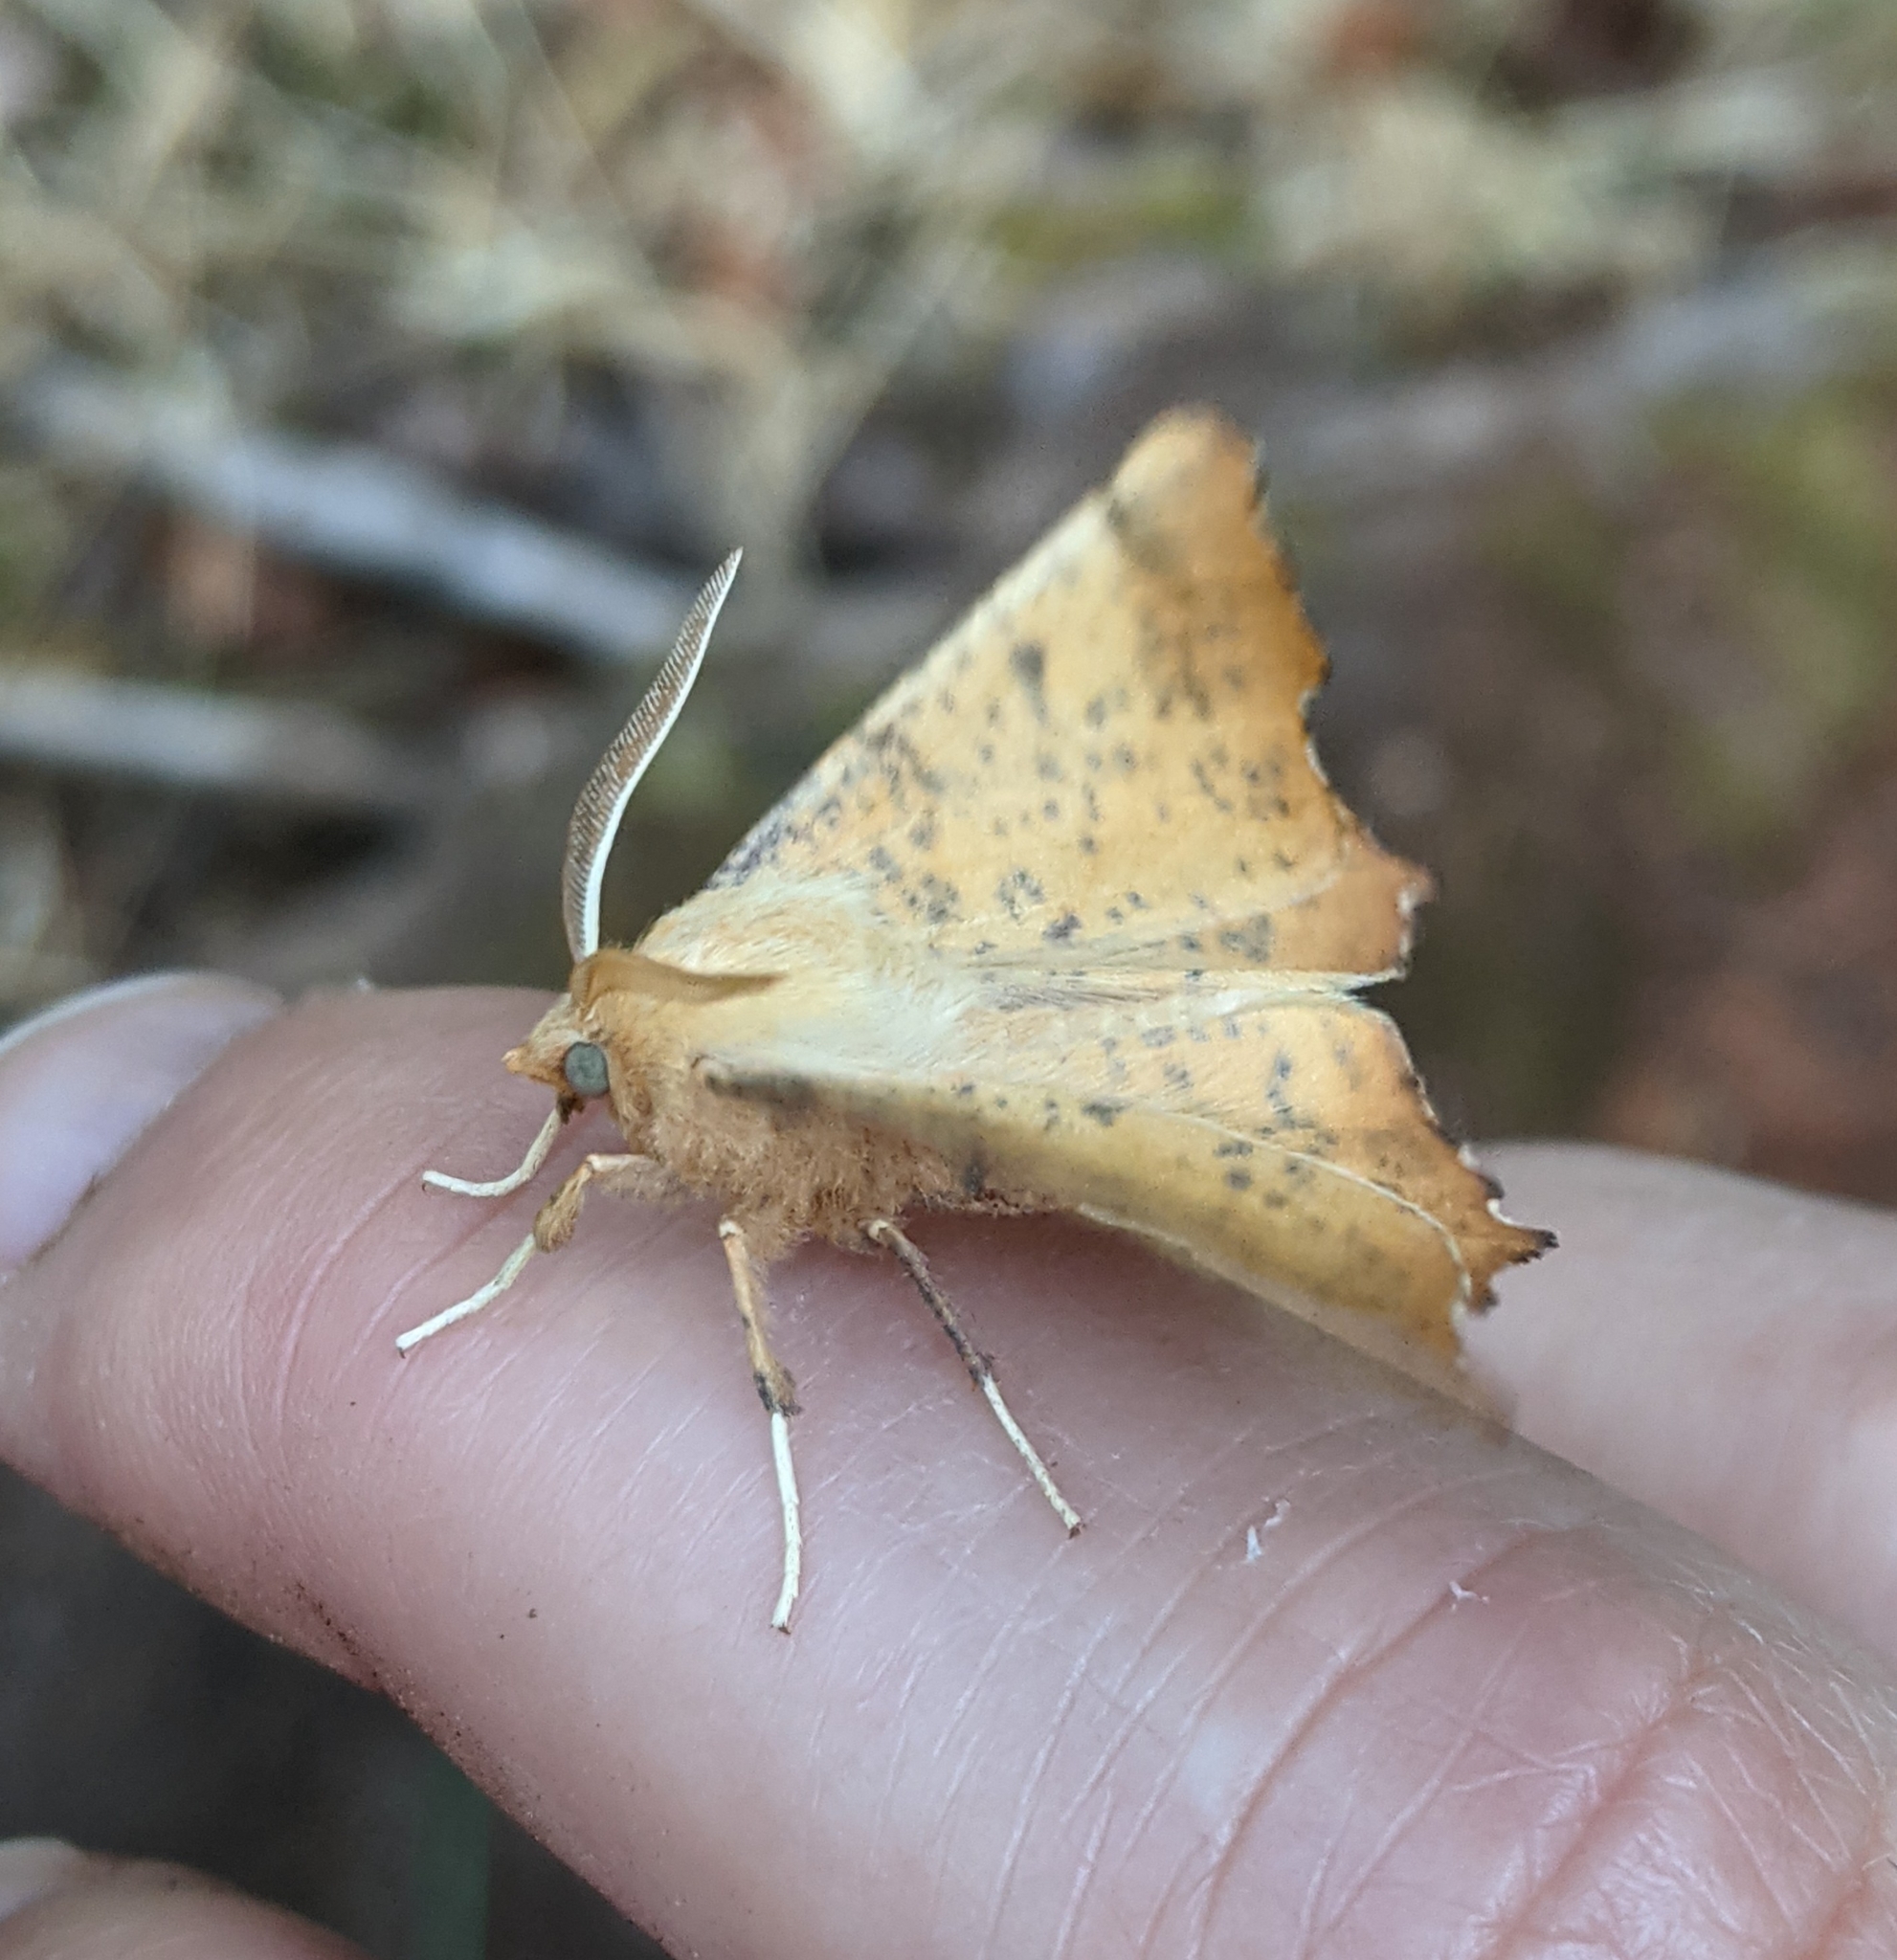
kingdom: Animalia
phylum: Arthropoda
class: Insecta
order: Lepidoptera
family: Geometridae
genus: Ennomos
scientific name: Ennomos magnaria
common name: Maple spanworm
